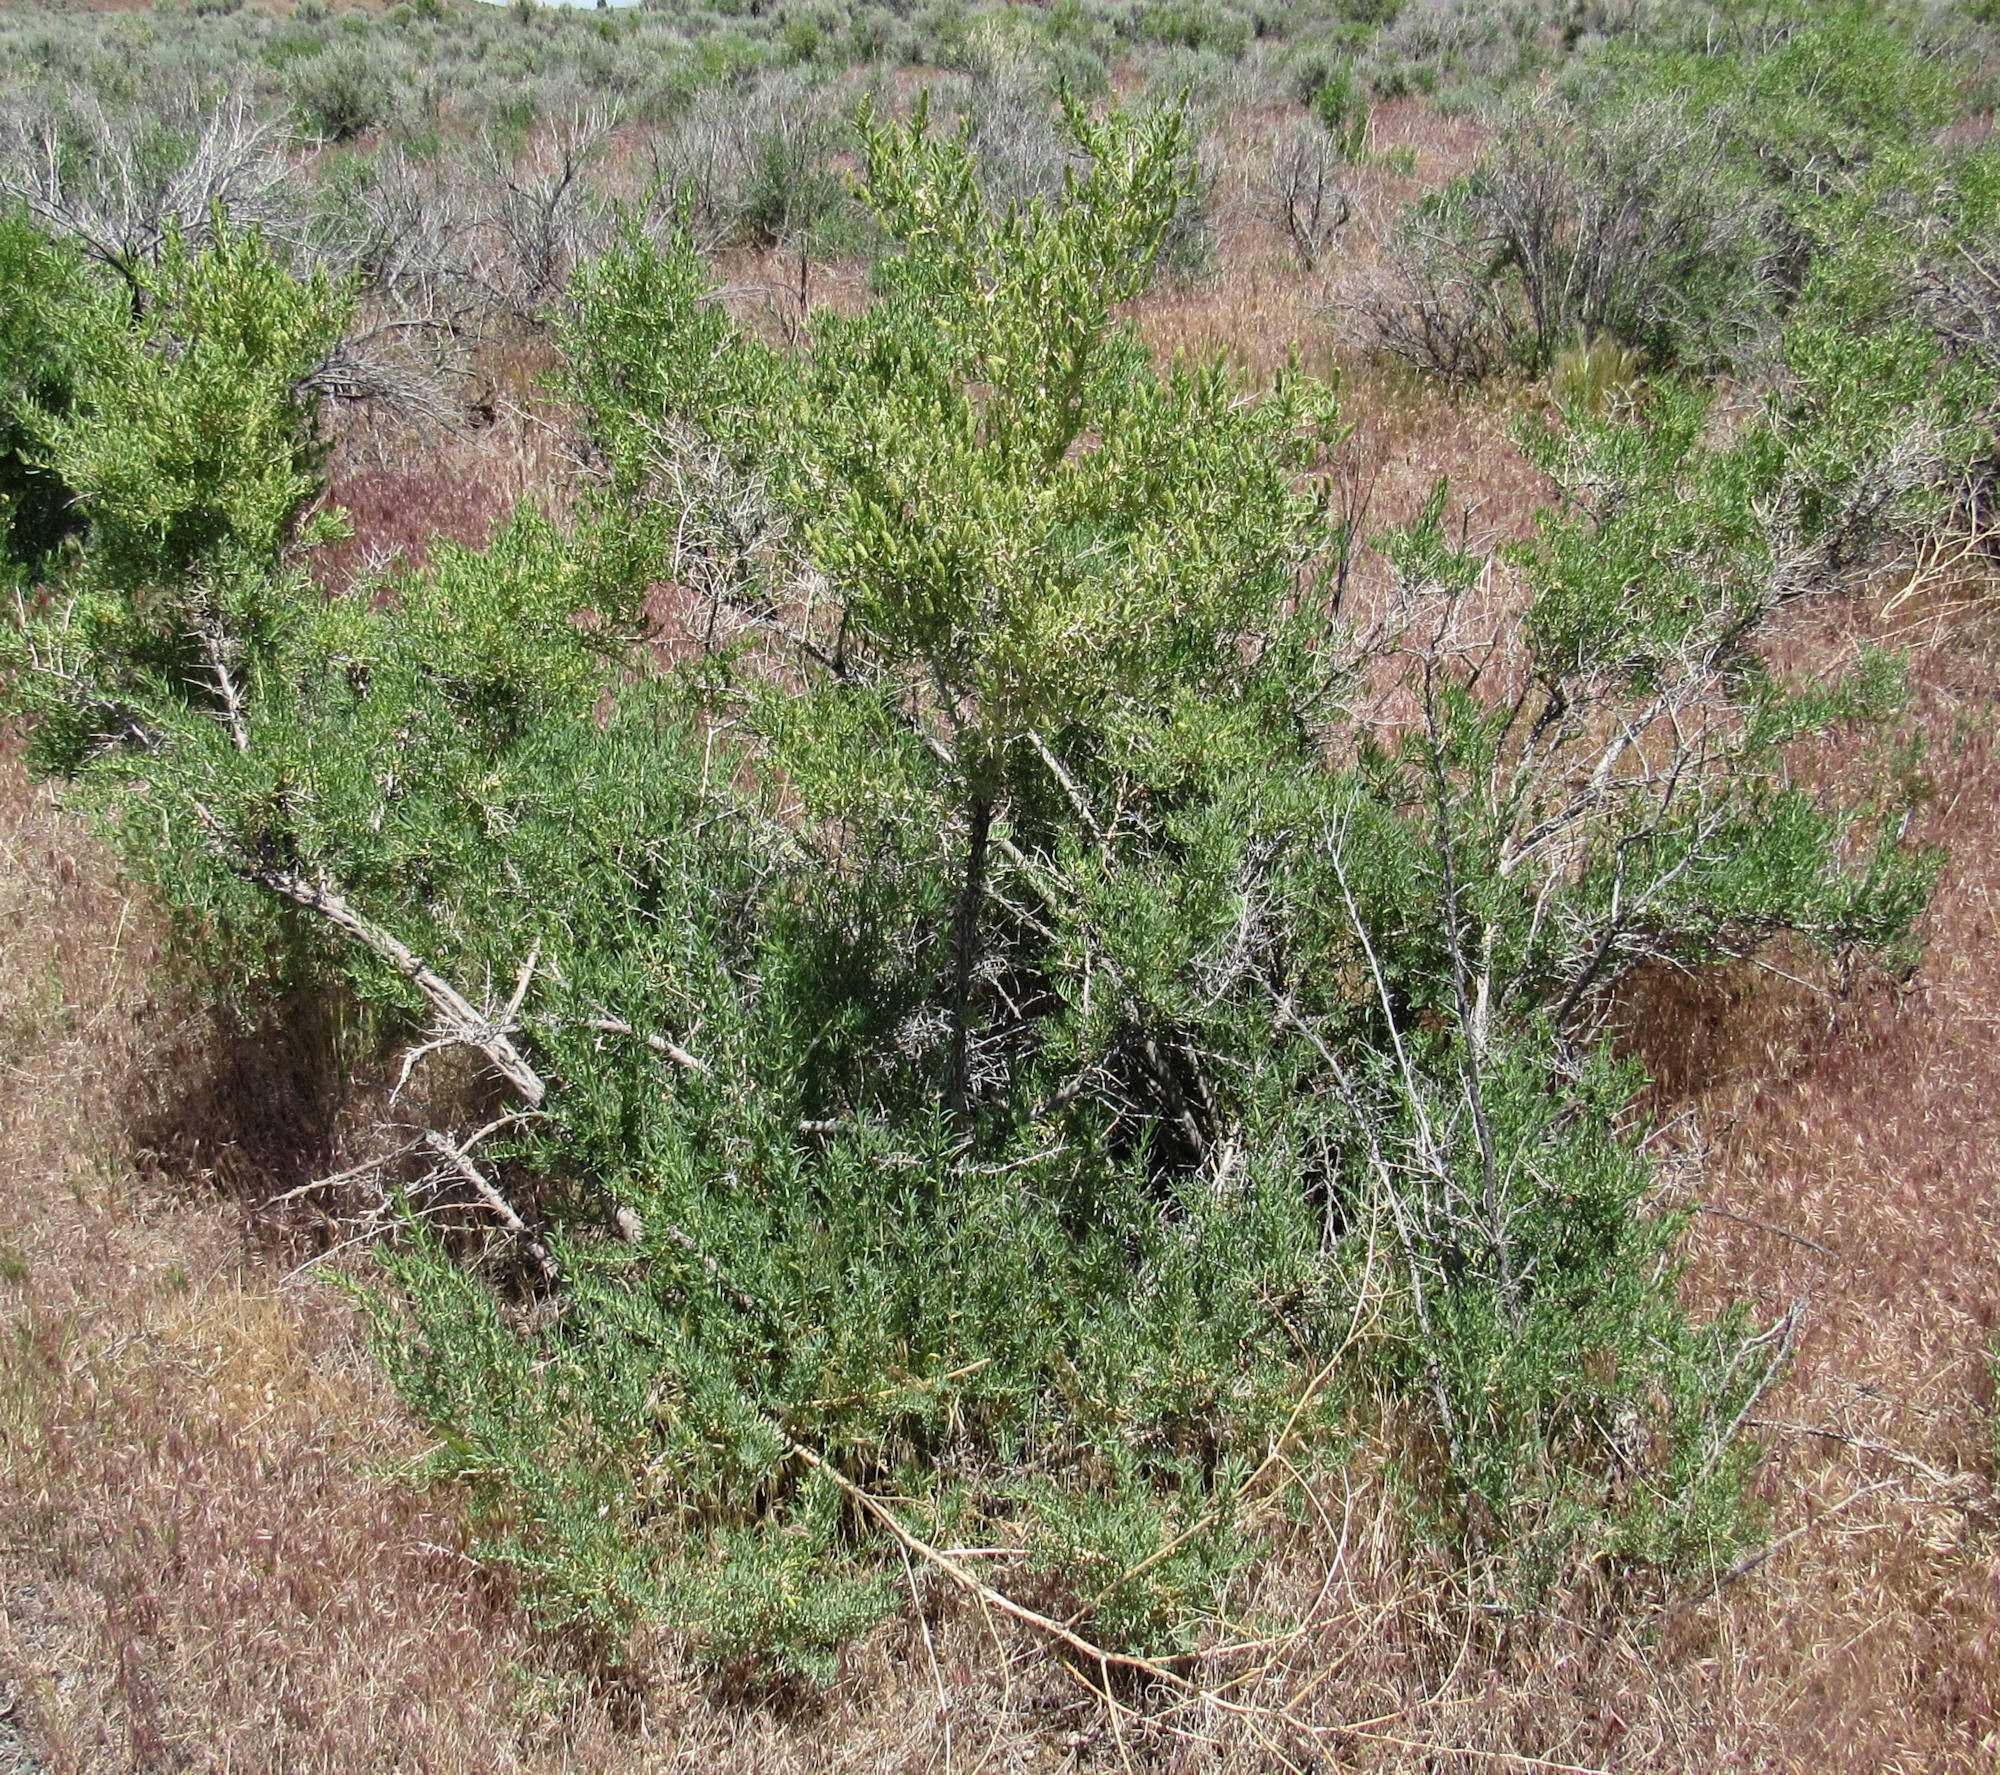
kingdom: Plantae
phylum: Tracheophyta
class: Magnoliopsida
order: Caryophyllales
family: Sarcobataceae
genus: Sarcobatus
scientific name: Sarcobatus vermiculatus
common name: Greasewood
